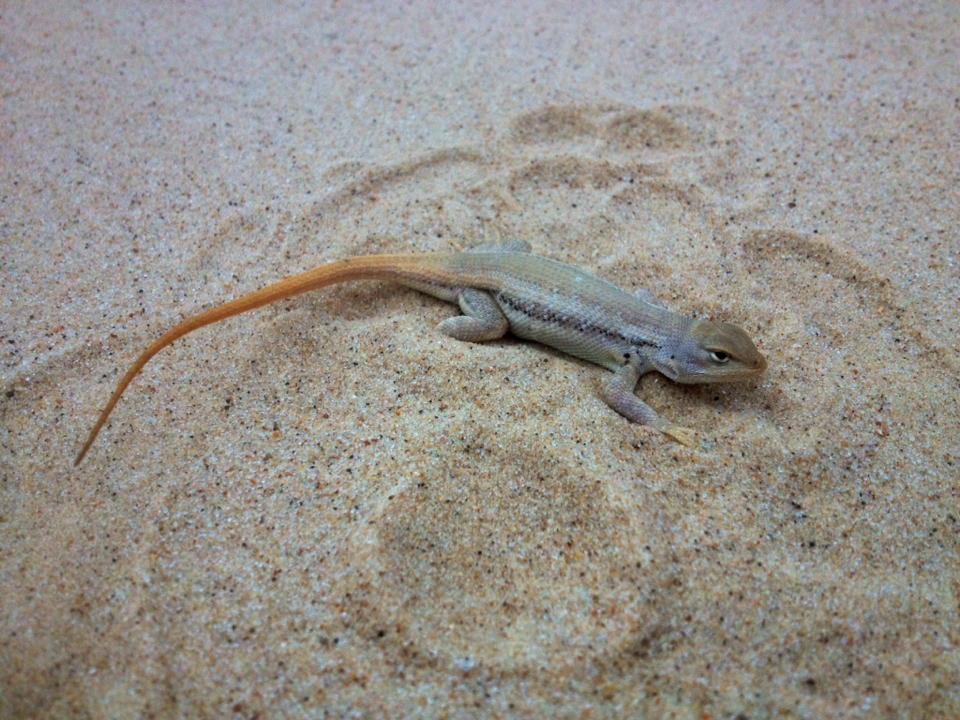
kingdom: Animalia
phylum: Chordata
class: Squamata
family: Phrynosomatidae
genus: Sceloporus
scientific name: Sceloporus arenicolus
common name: Dunes sagebrush lizard
